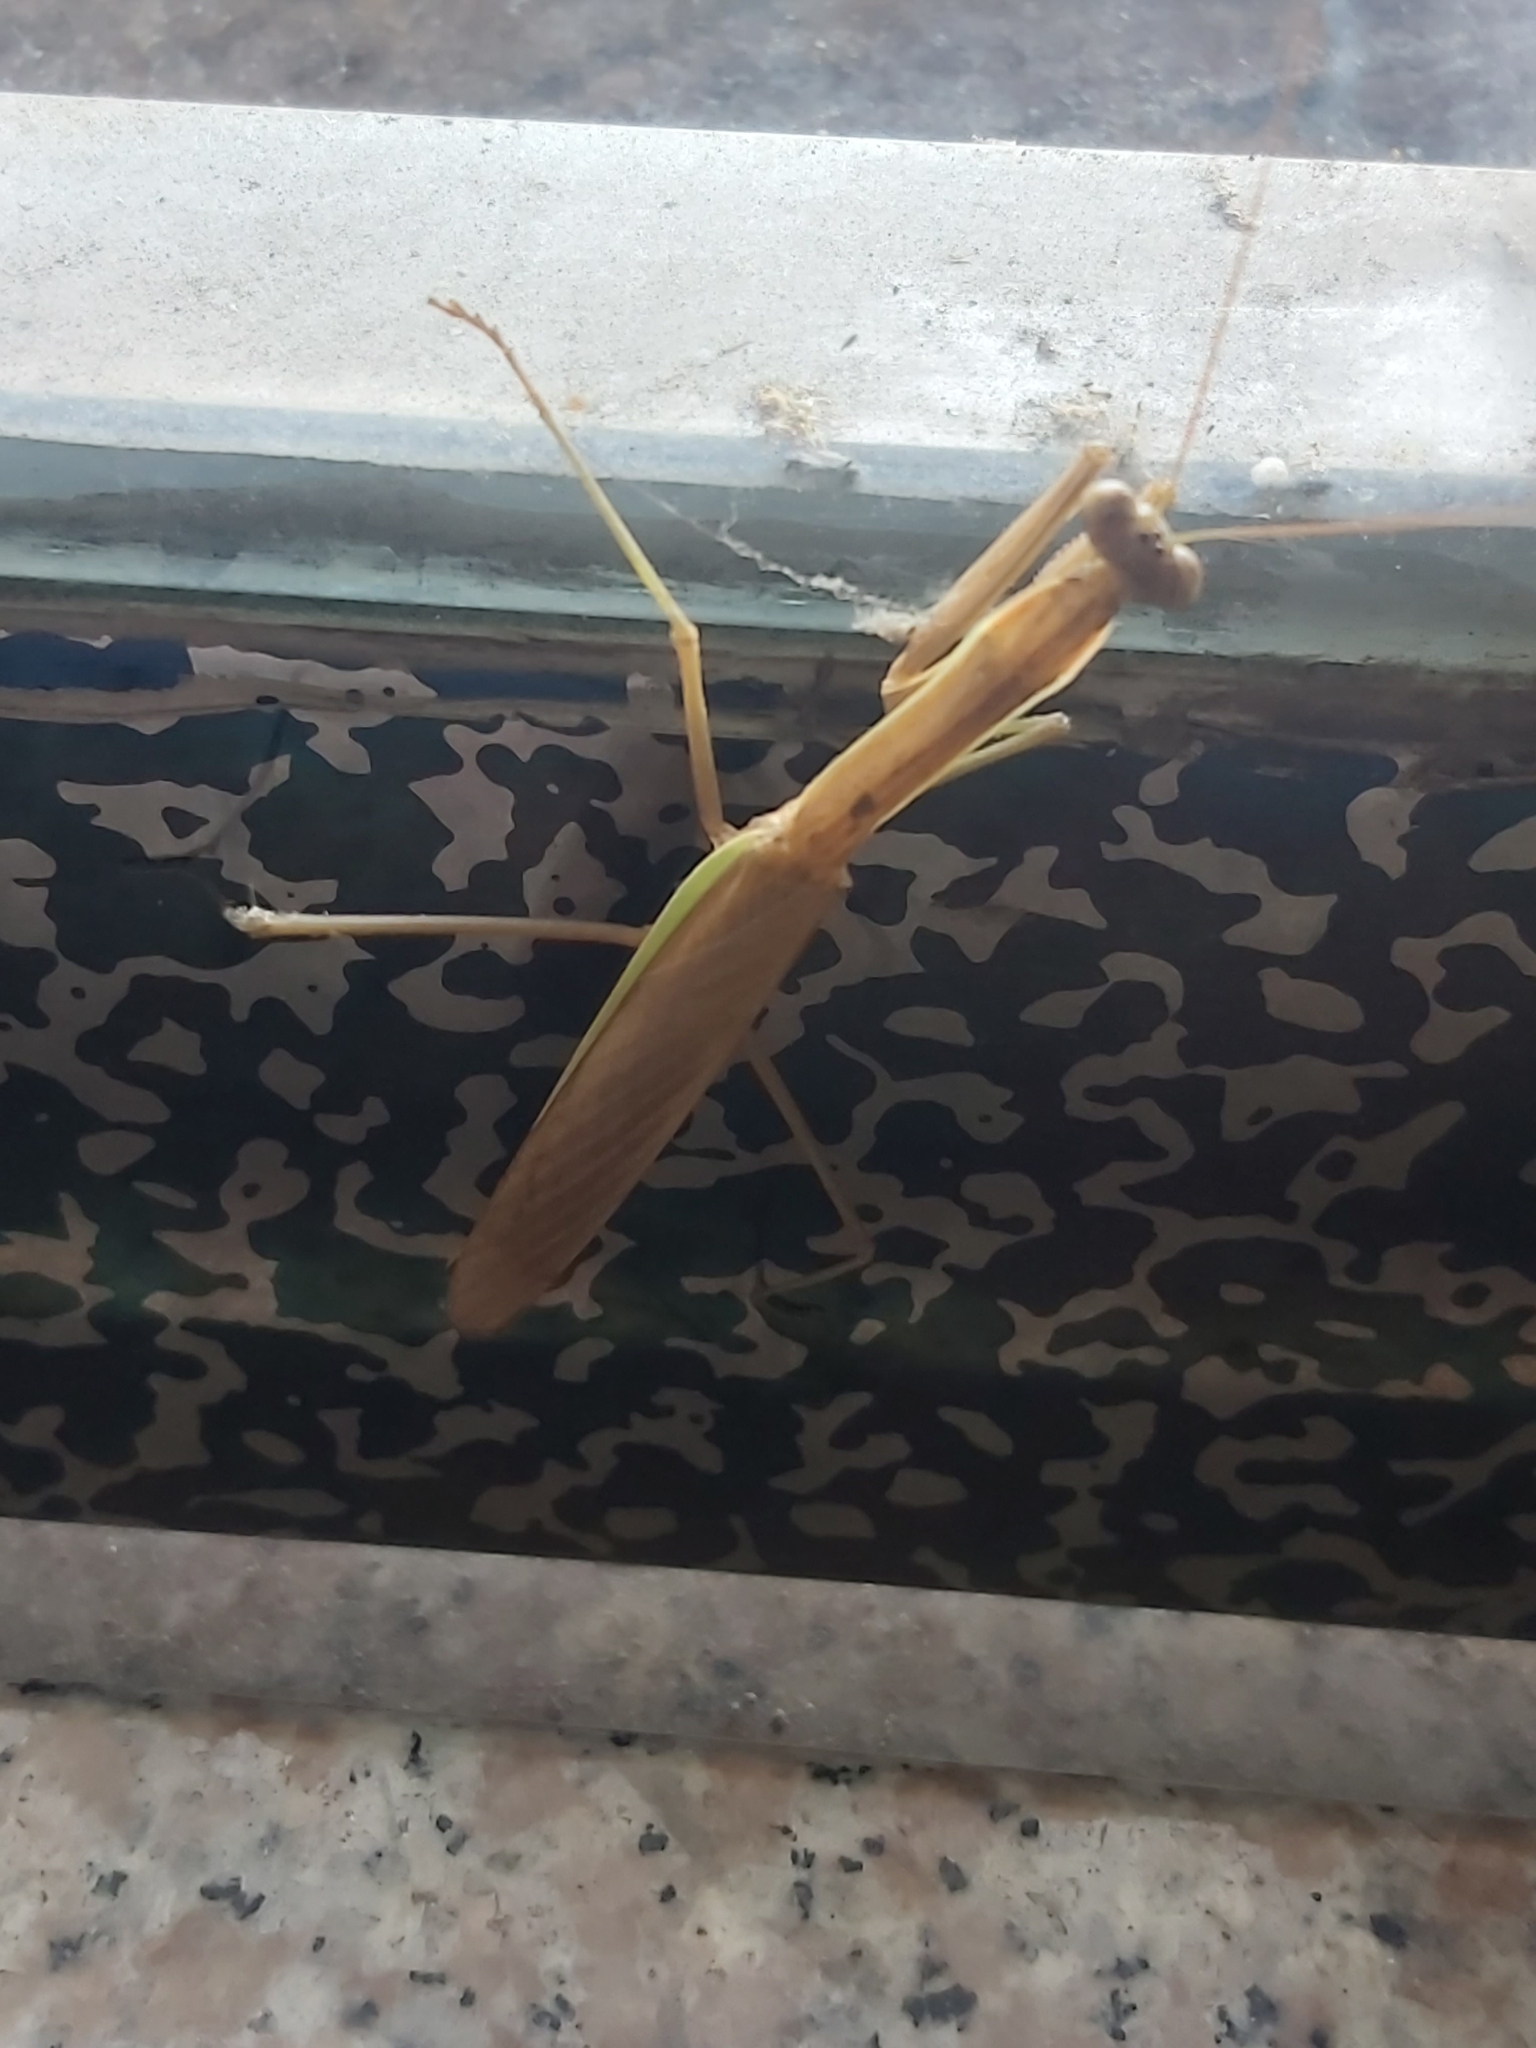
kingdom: Animalia
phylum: Arthropoda
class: Insecta
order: Mantodea
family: Mantidae
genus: Tenodera
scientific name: Tenodera aridifolia
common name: Mantis
